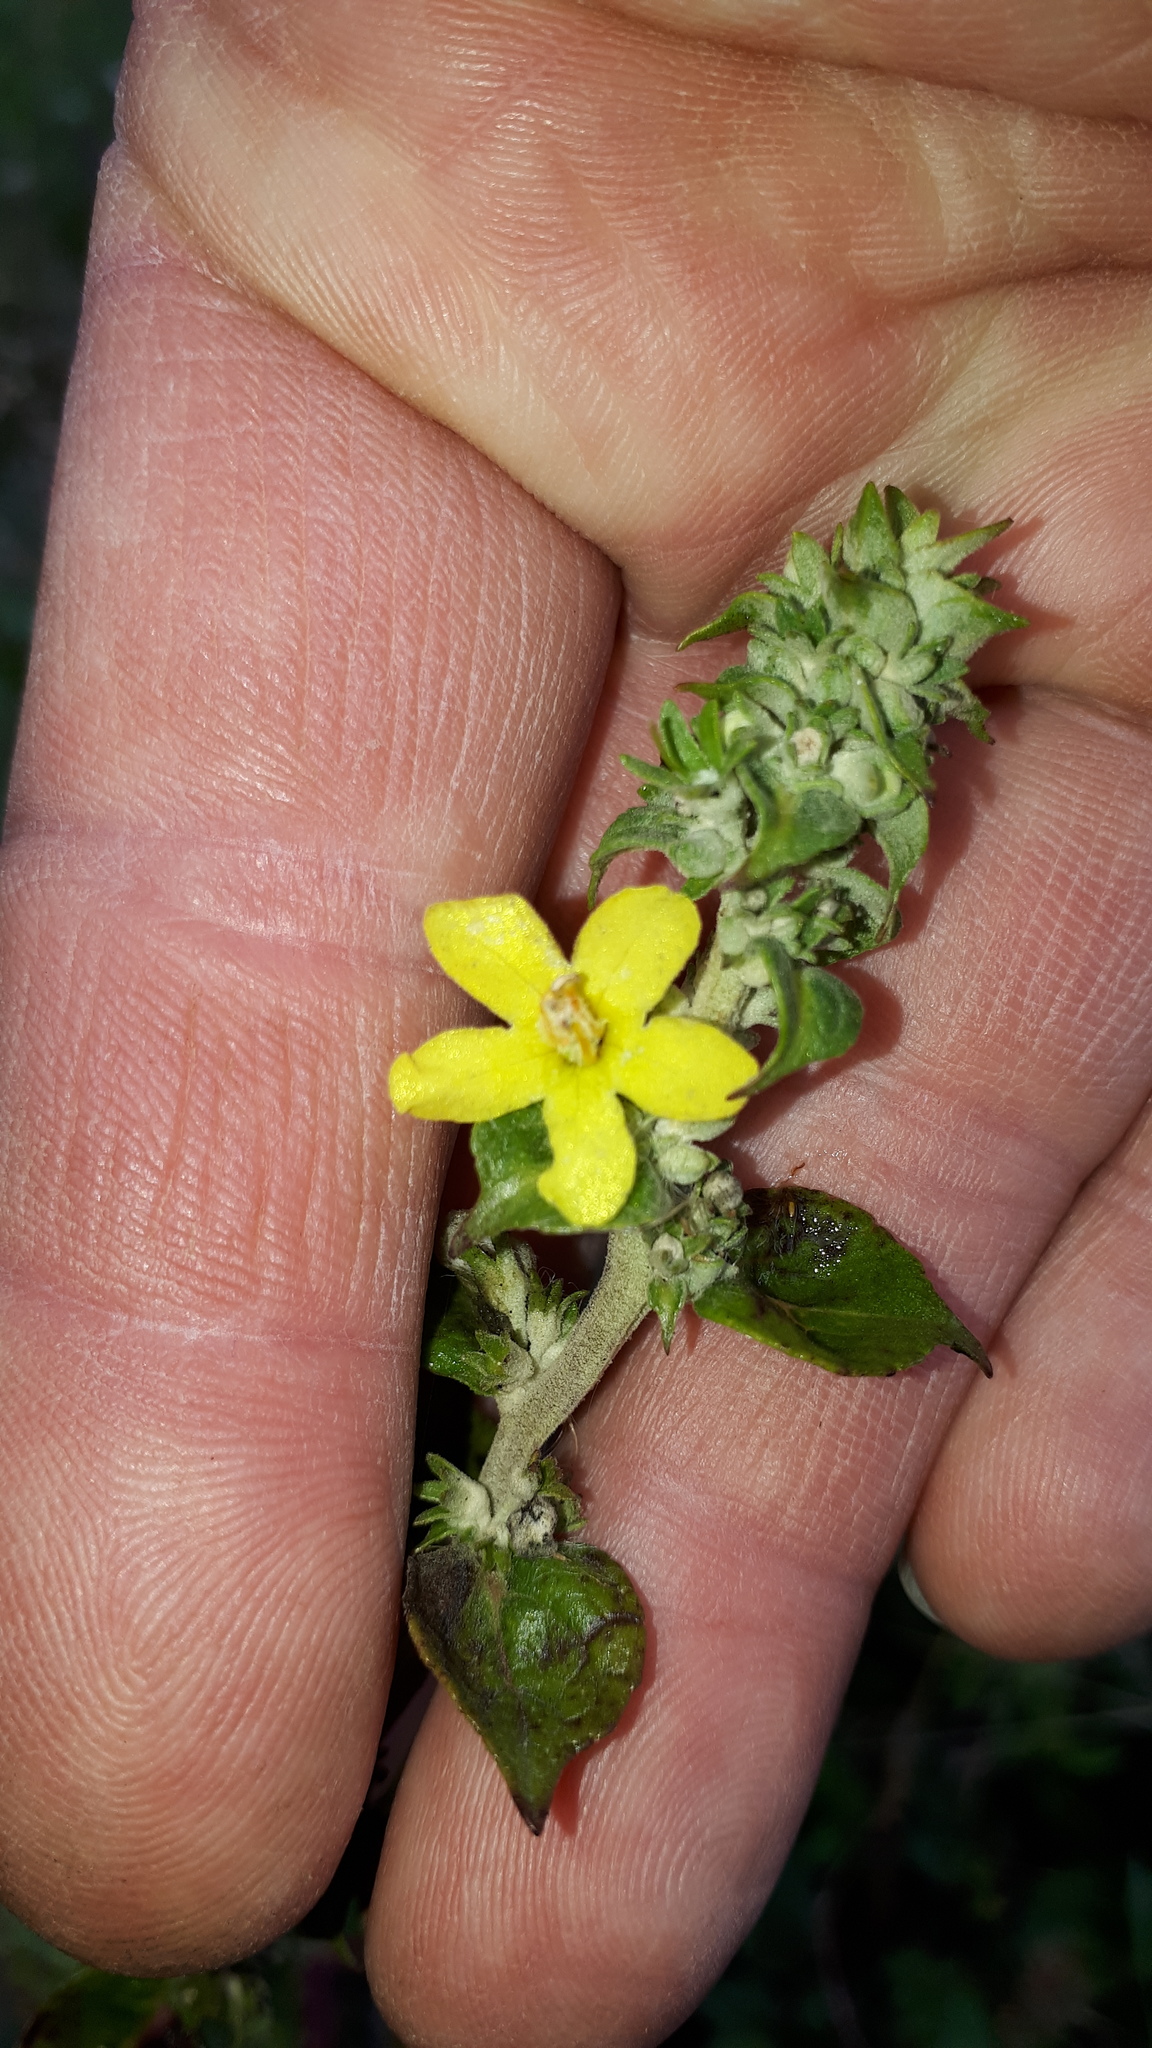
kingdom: Plantae
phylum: Tracheophyta
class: Magnoliopsida
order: Lamiales
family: Scrophulariaceae
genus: Verbascum
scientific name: Verbascum lychnitis
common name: White mullein
